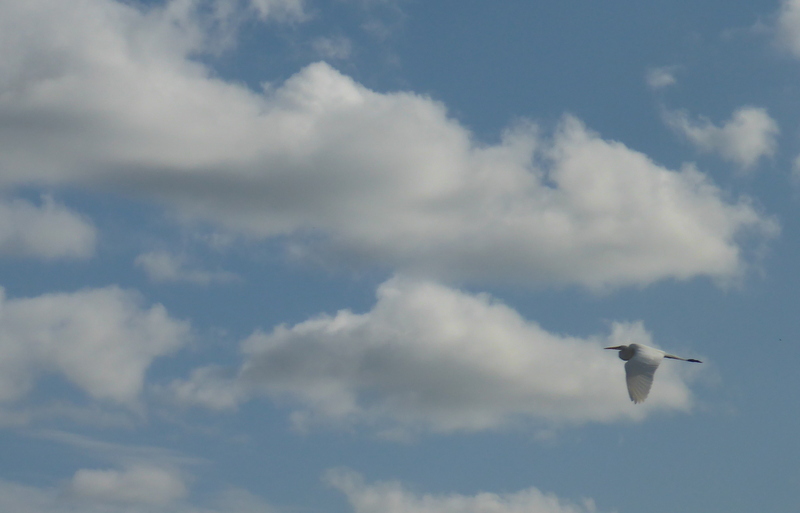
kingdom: Animalia
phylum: Chordata
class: Aves
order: Pelecaniformes
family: Ardeidae
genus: Ardea
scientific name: Ardea alba
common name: Great egret
